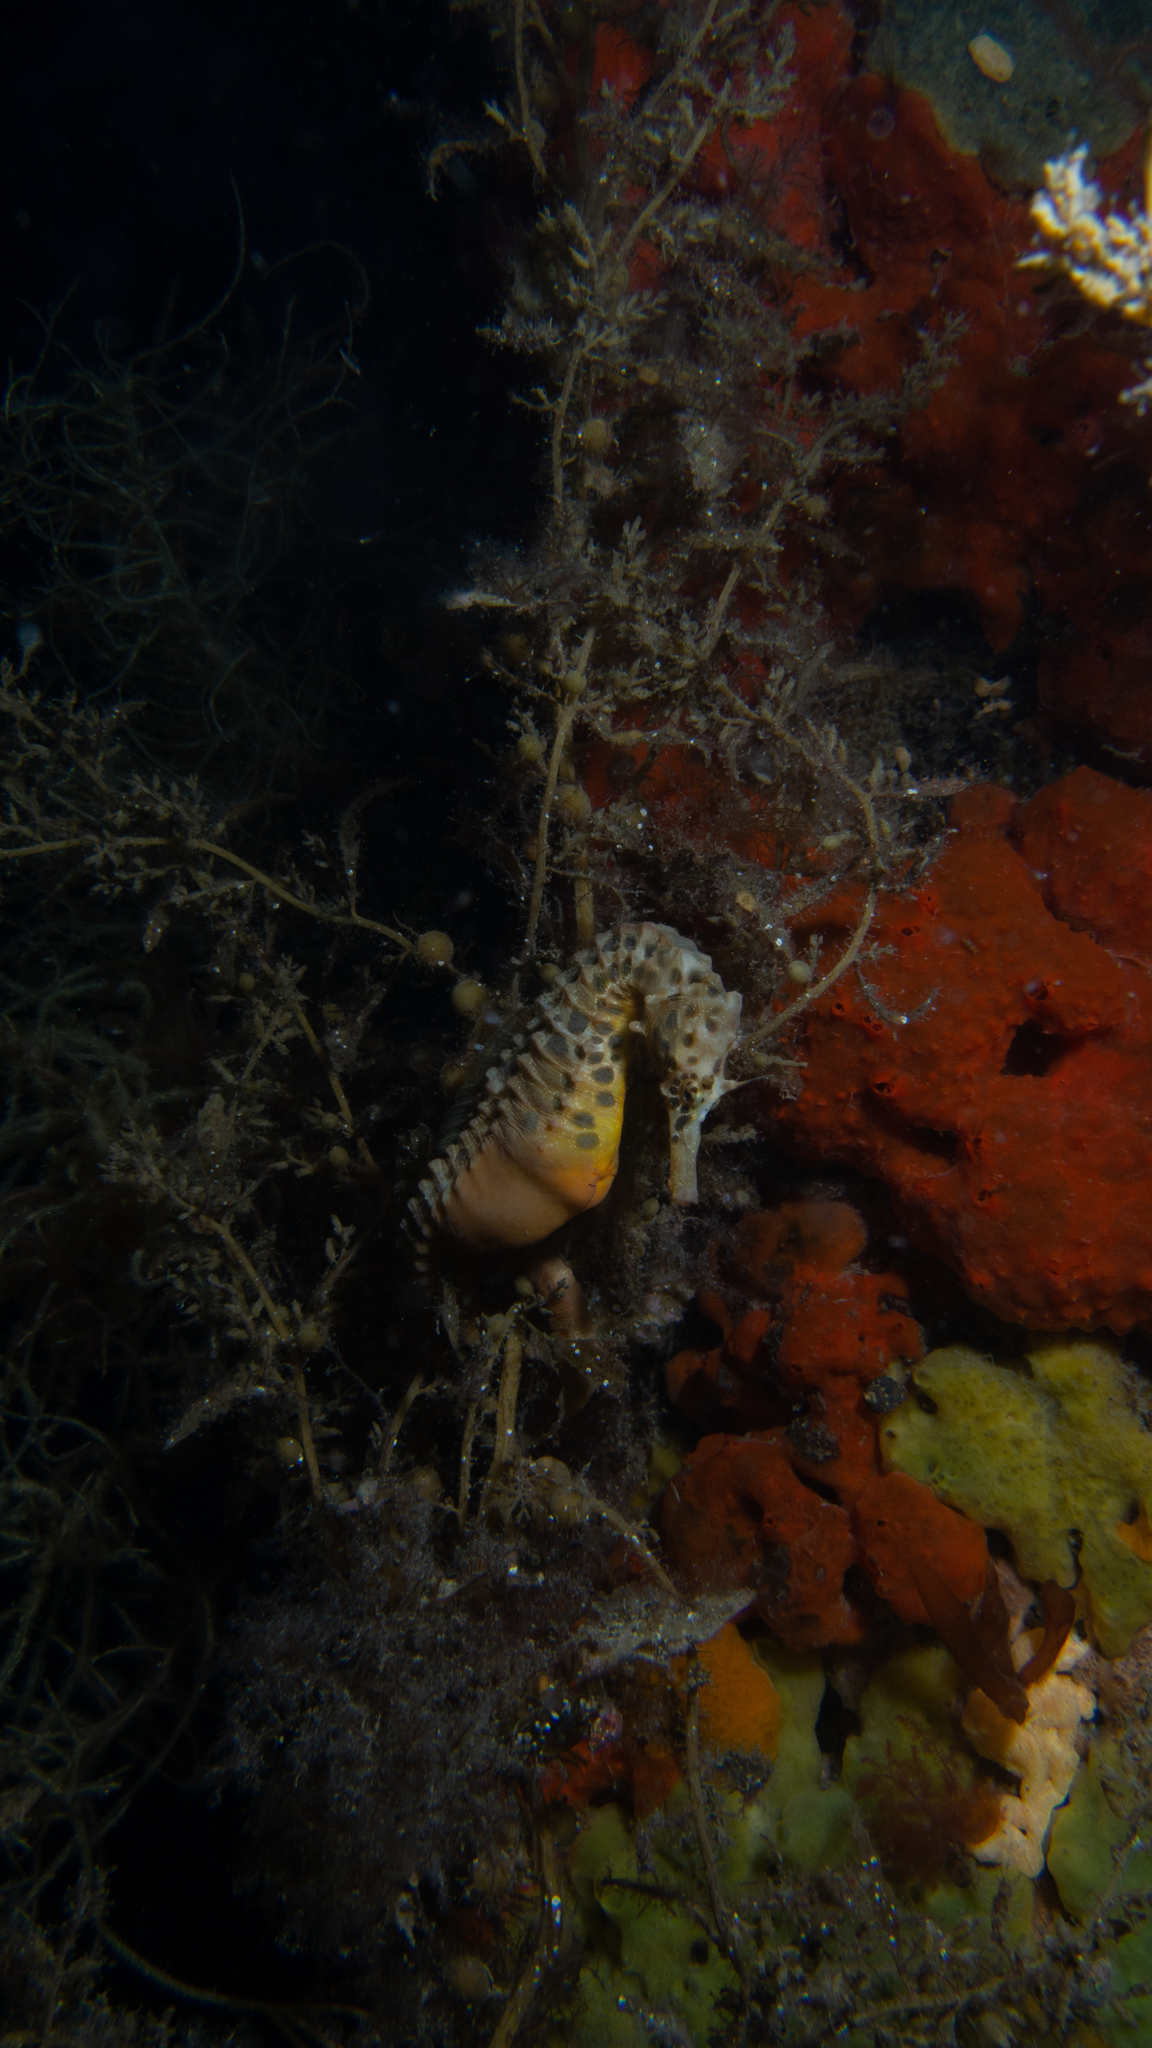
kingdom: Animalia
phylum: Chordata
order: Syngnathiformes
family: Syngnathidae
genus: Hippocampus
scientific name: Hippocampus abdominalis
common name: Big-belly seahorse
